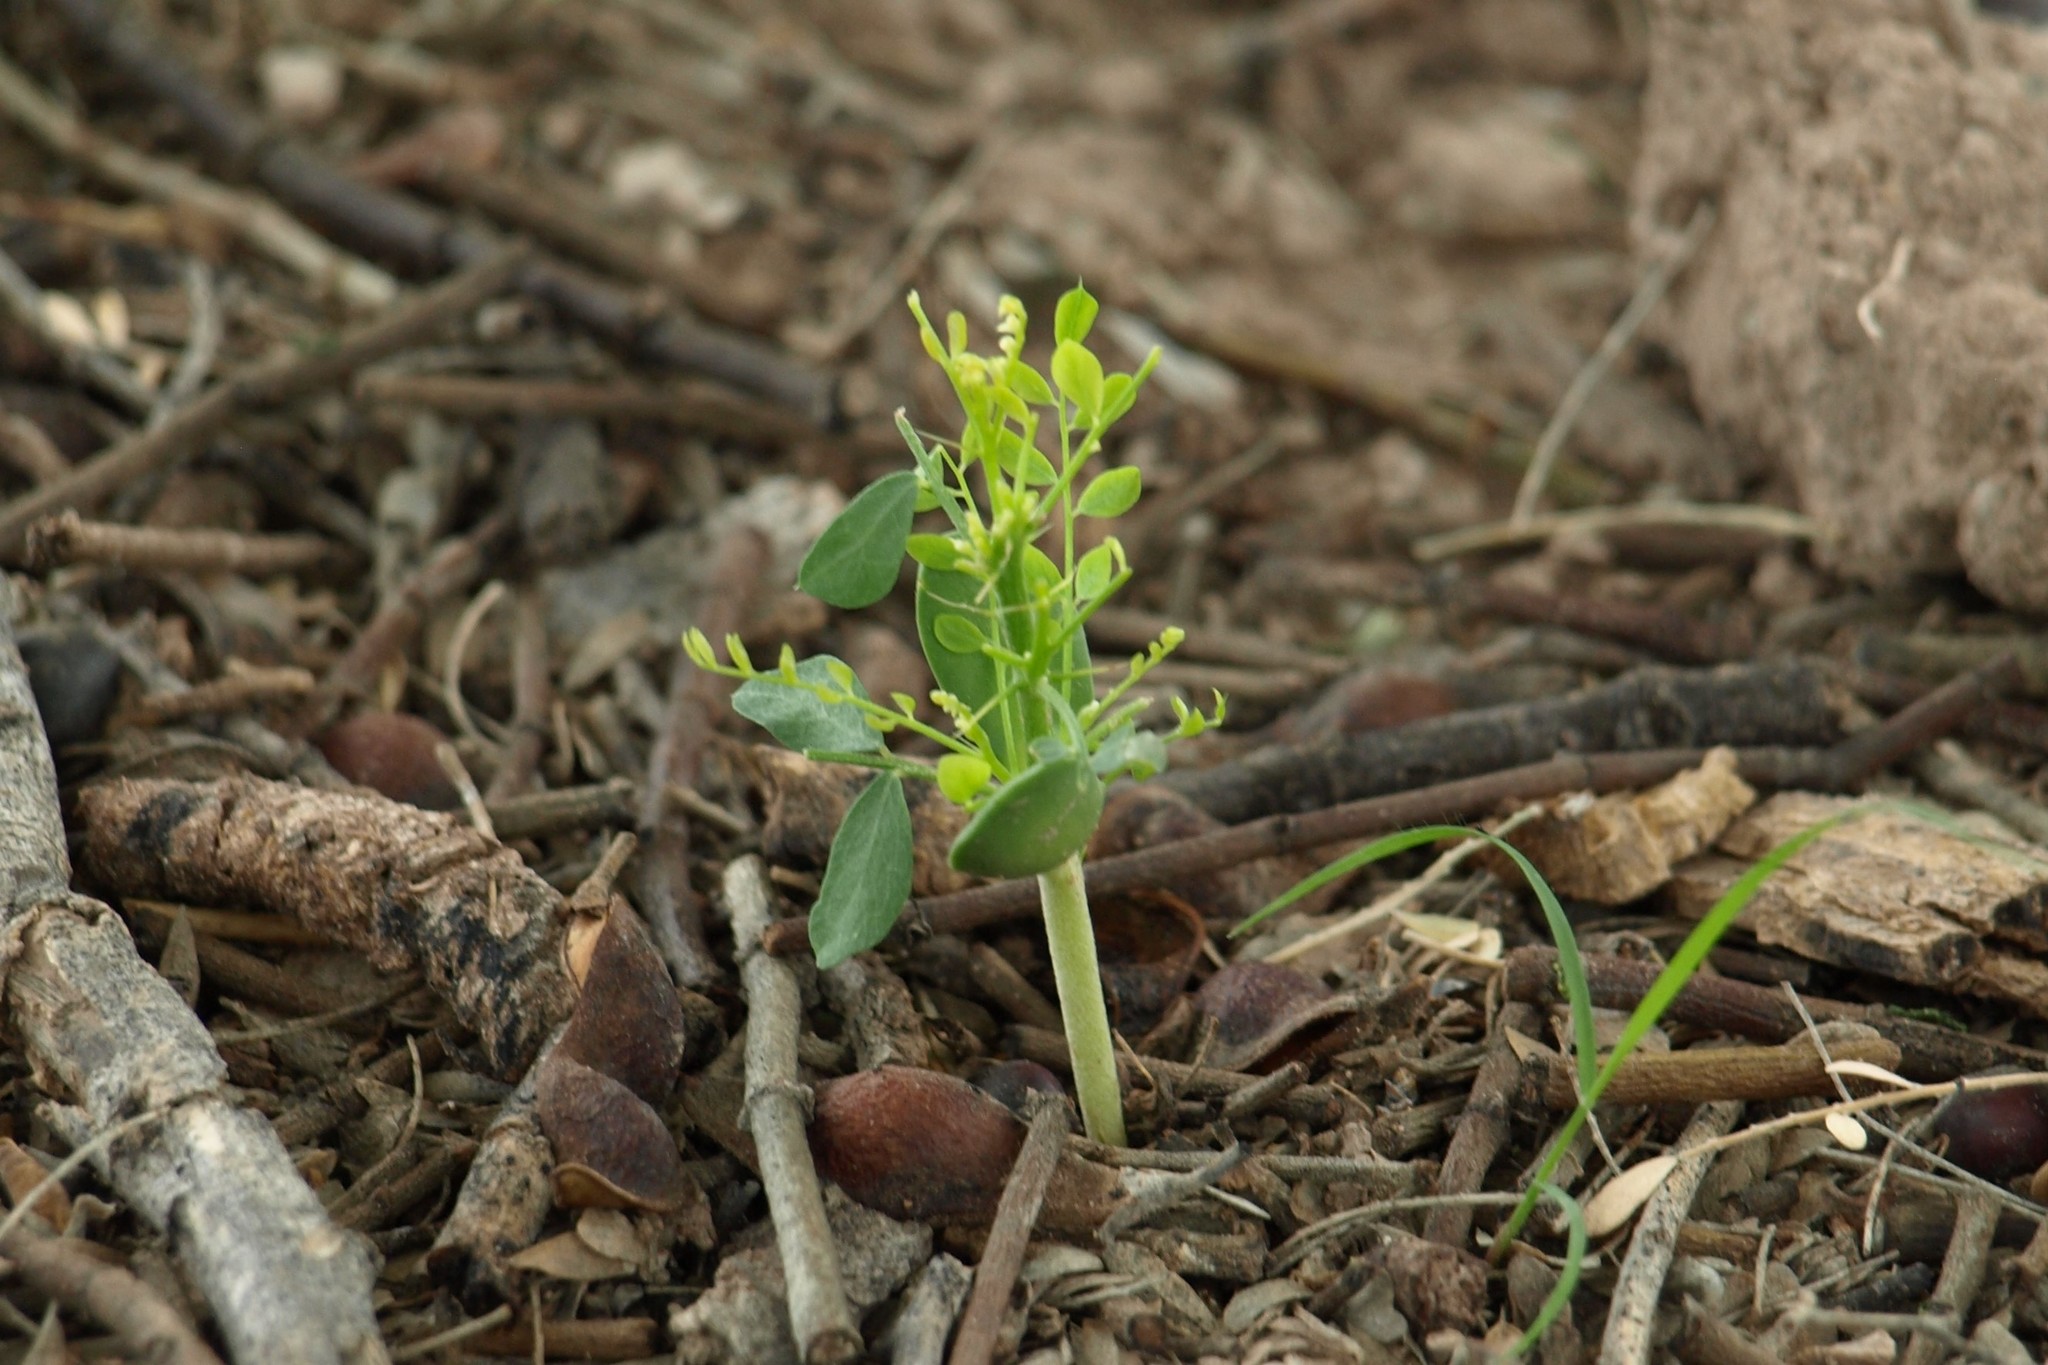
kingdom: Plantae
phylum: Tracheophyta
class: Magnoliopsida
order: Fabales
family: Fabaceae
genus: Olneya
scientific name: Olneya tesota
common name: Desert ironwood
